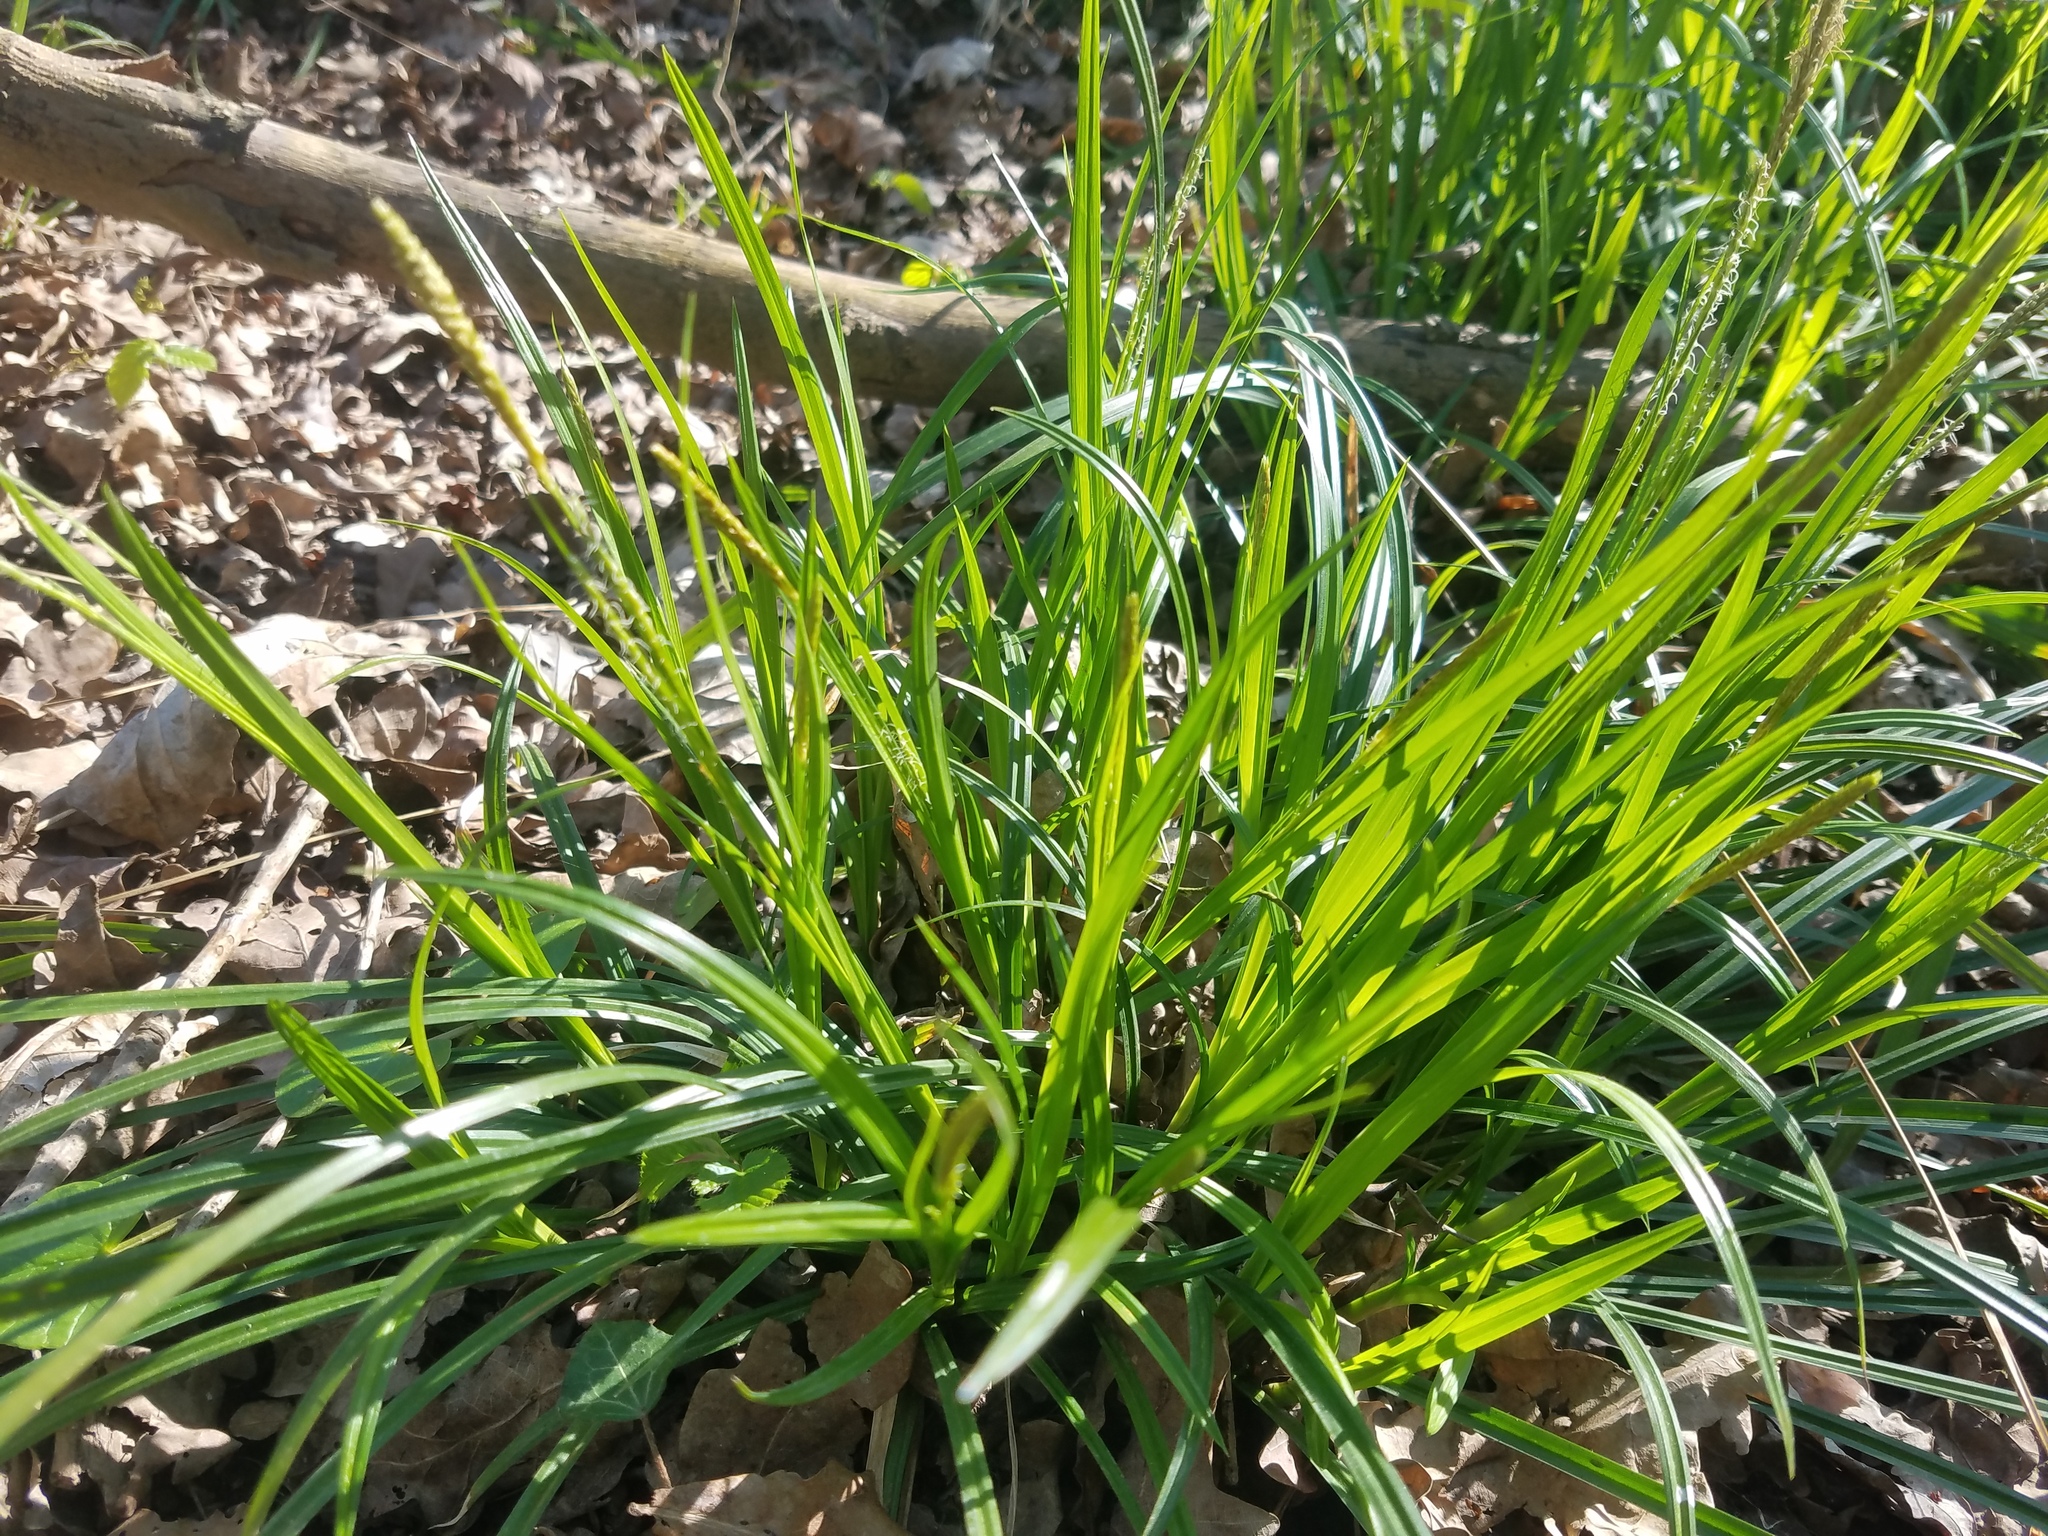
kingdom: Plantae
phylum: Tracheophyta
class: Liliopsida
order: Poales
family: Cyperaceae
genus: Carex
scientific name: Carex sylvatica
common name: Wood-sedge
